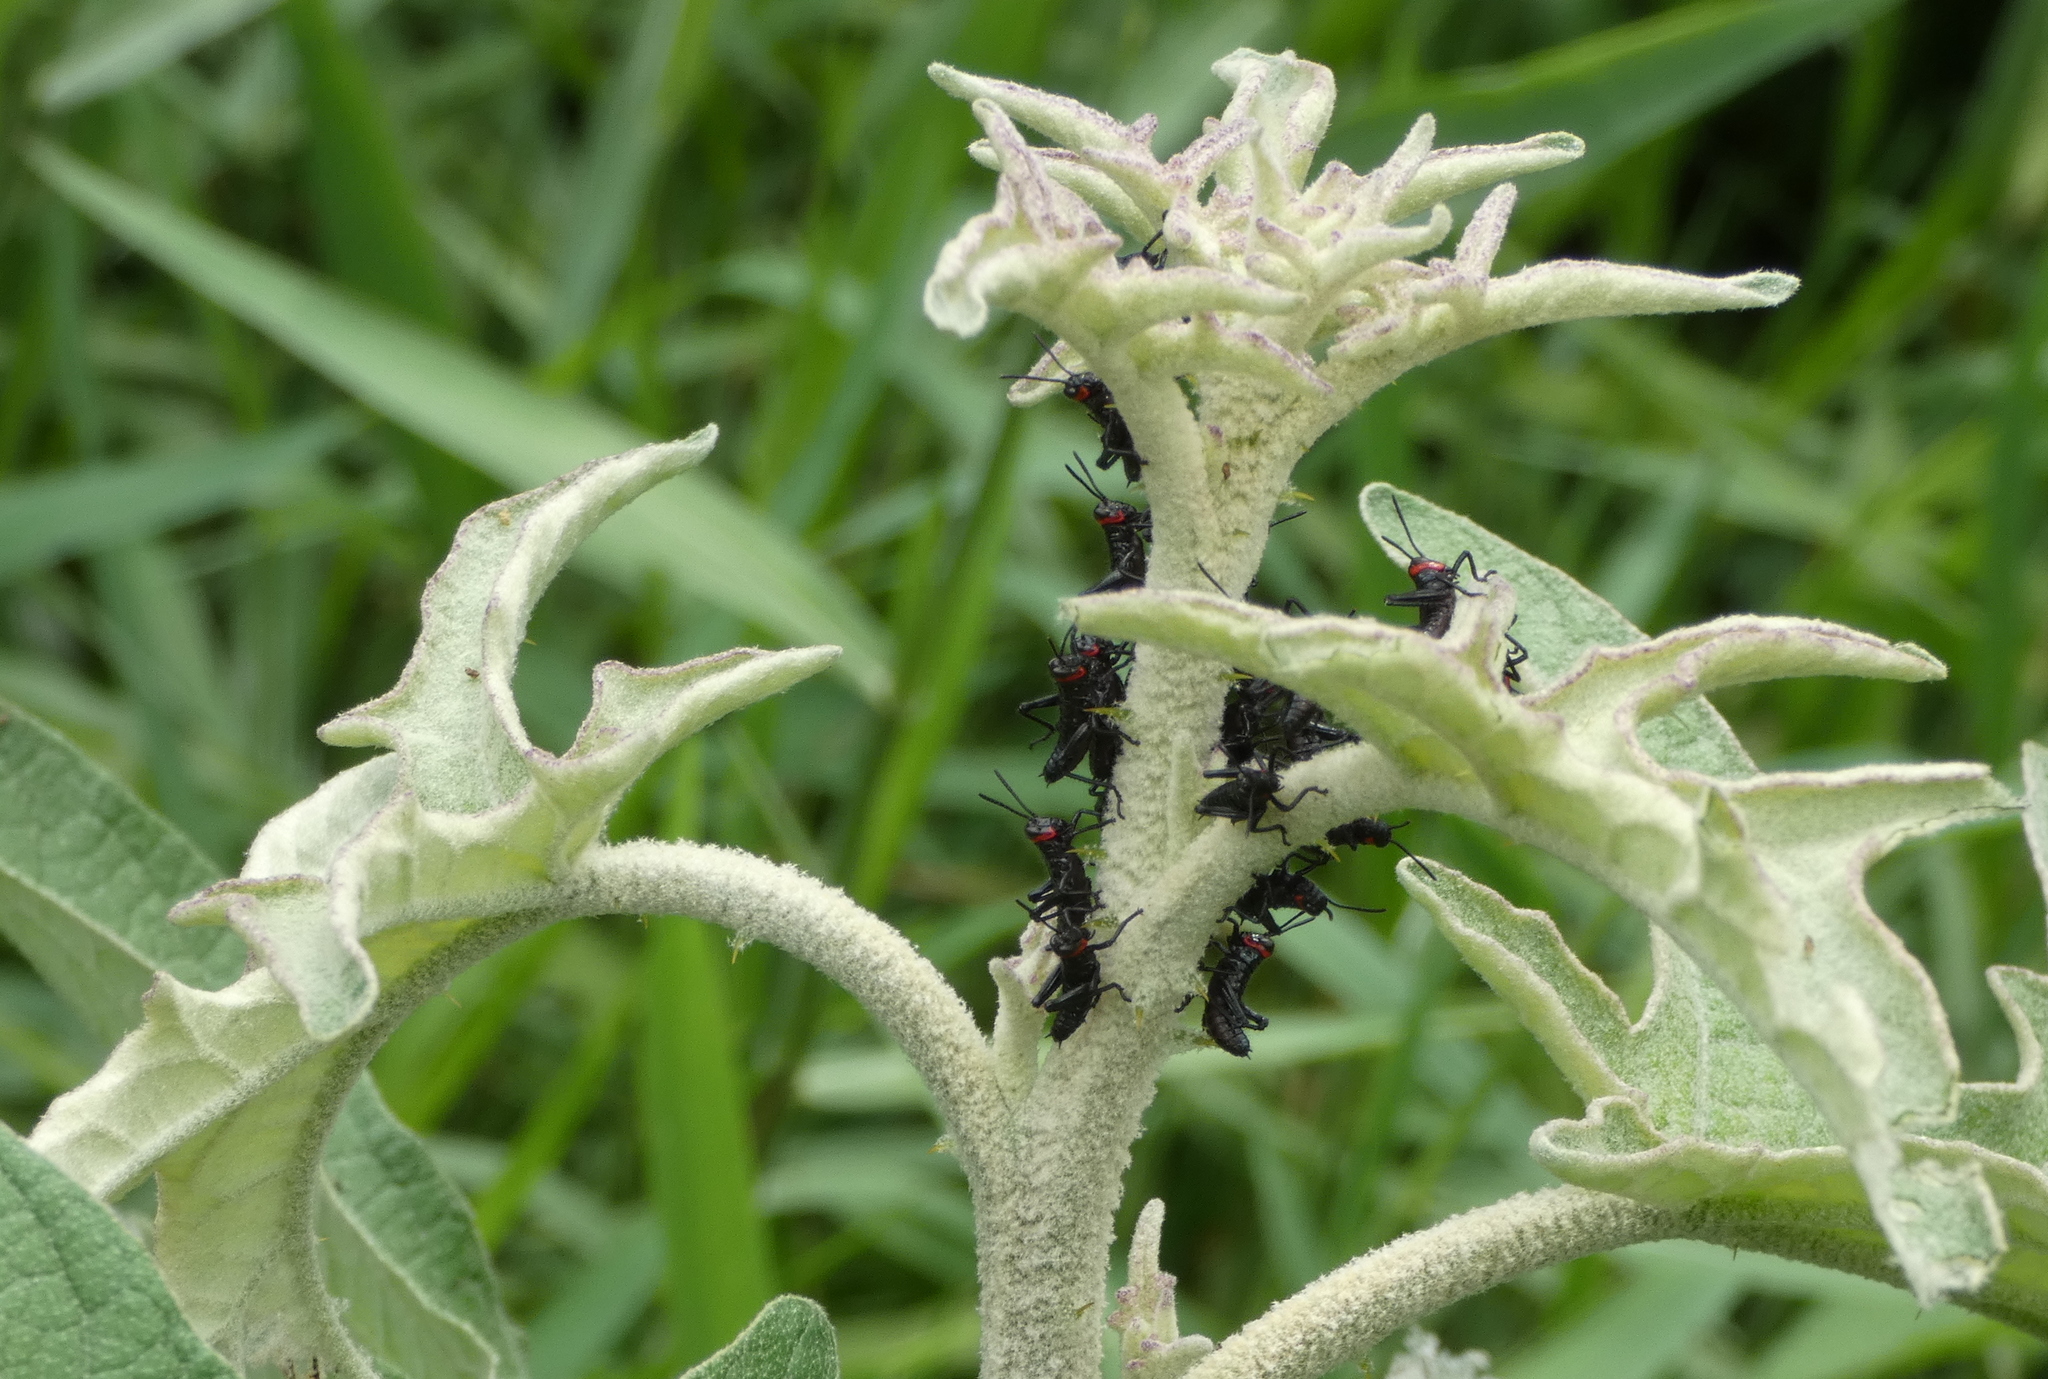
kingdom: Animalia
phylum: Arthropoda
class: Insecta
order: Orthoptera
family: Romaleidae
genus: Chromacris
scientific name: Chromacris speciosa
